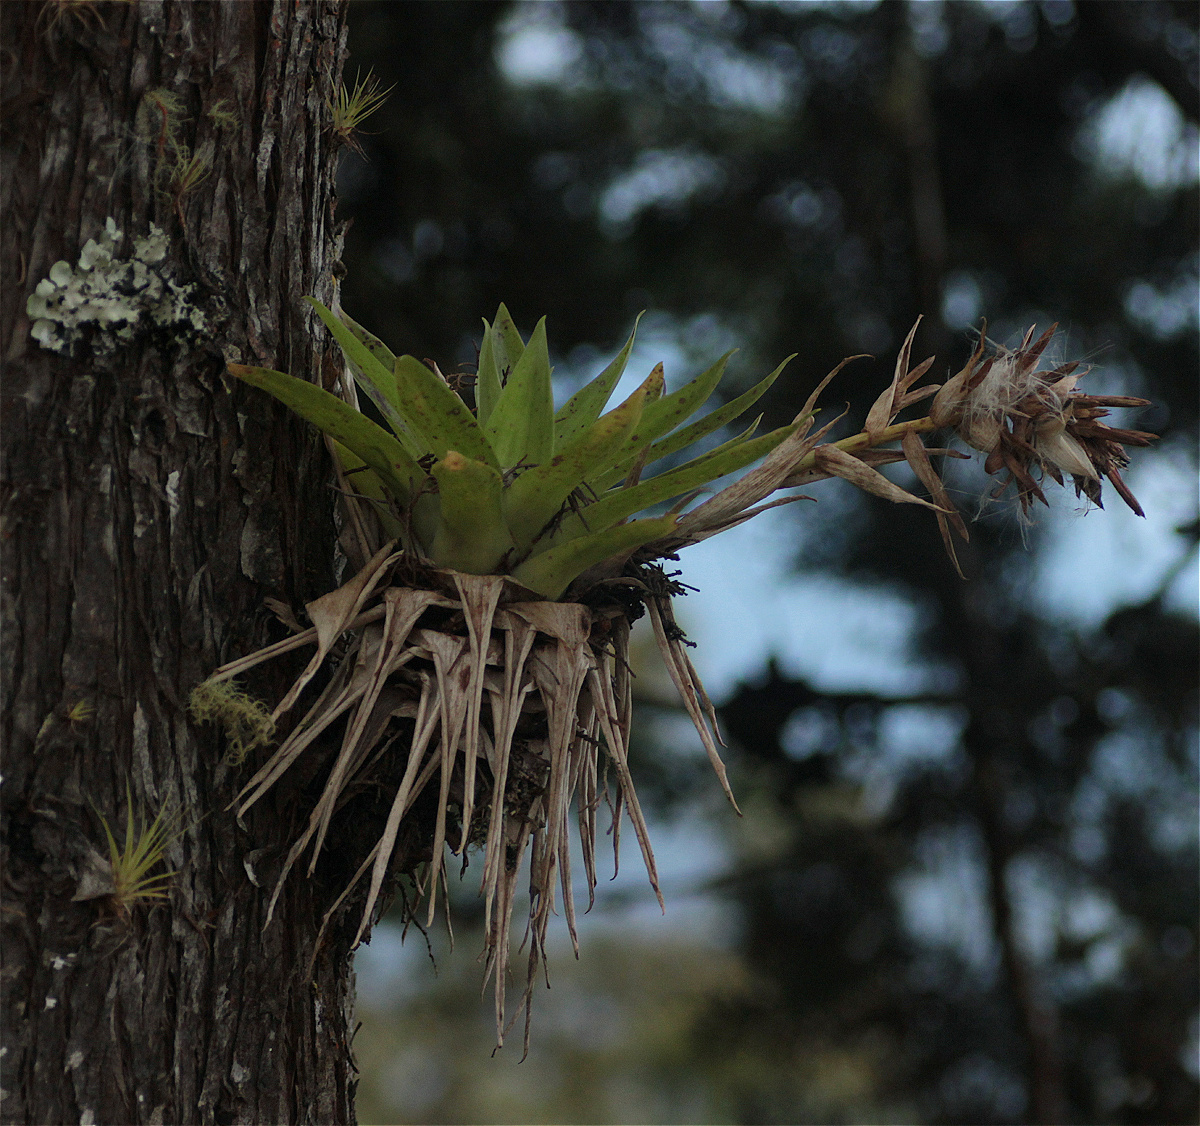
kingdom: Plantae
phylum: Tracheophyta
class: Liliopsida
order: Poales
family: Bromeliaceae
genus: Tillandsia
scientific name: Tillandsia biflora
